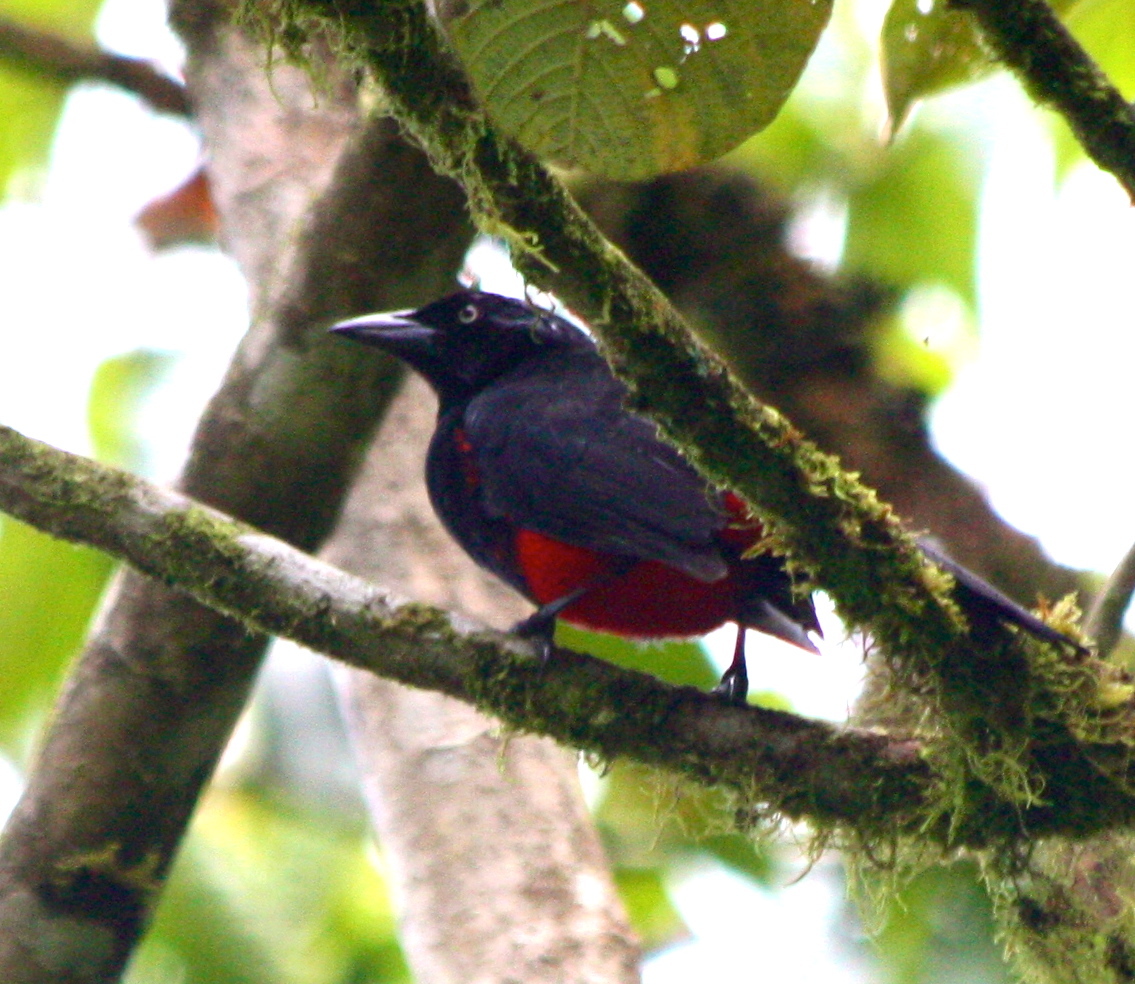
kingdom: Animalia
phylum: Chordata
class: Aves
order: Passeriformes
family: Icteridae
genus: Hypopyrrhus
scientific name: Hypopyrrhus pyrohypogaster
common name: Red-bellied grackle
